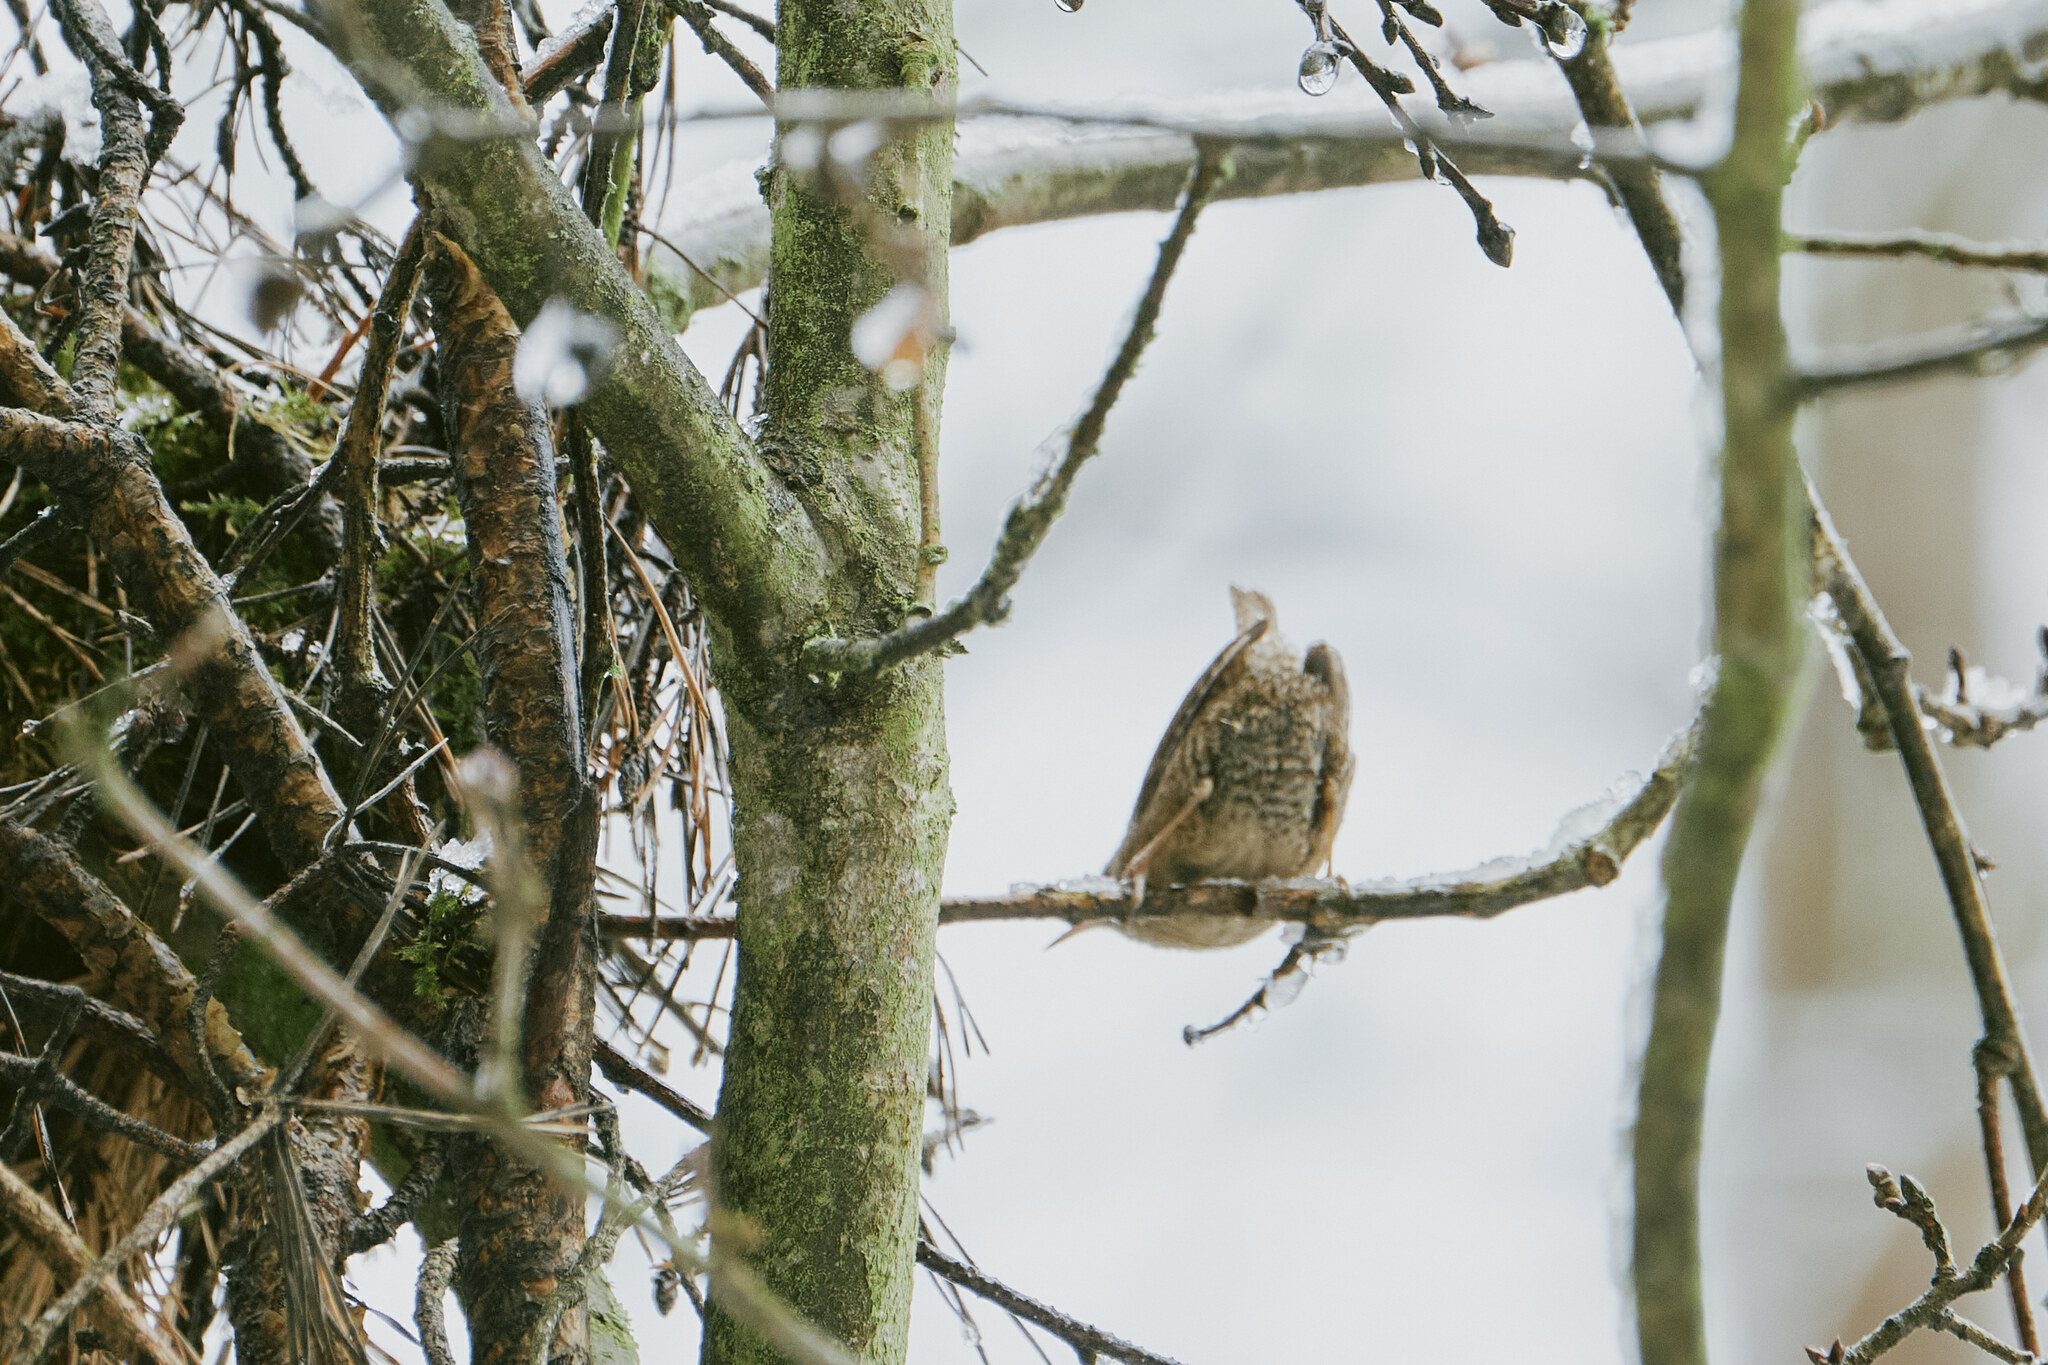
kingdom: Animalia
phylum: Chordata
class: Aves
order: Passeriformes
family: Troglodytidae
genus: Troglodytes
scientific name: Troglodytes troglodytes
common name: Eurasian wren
